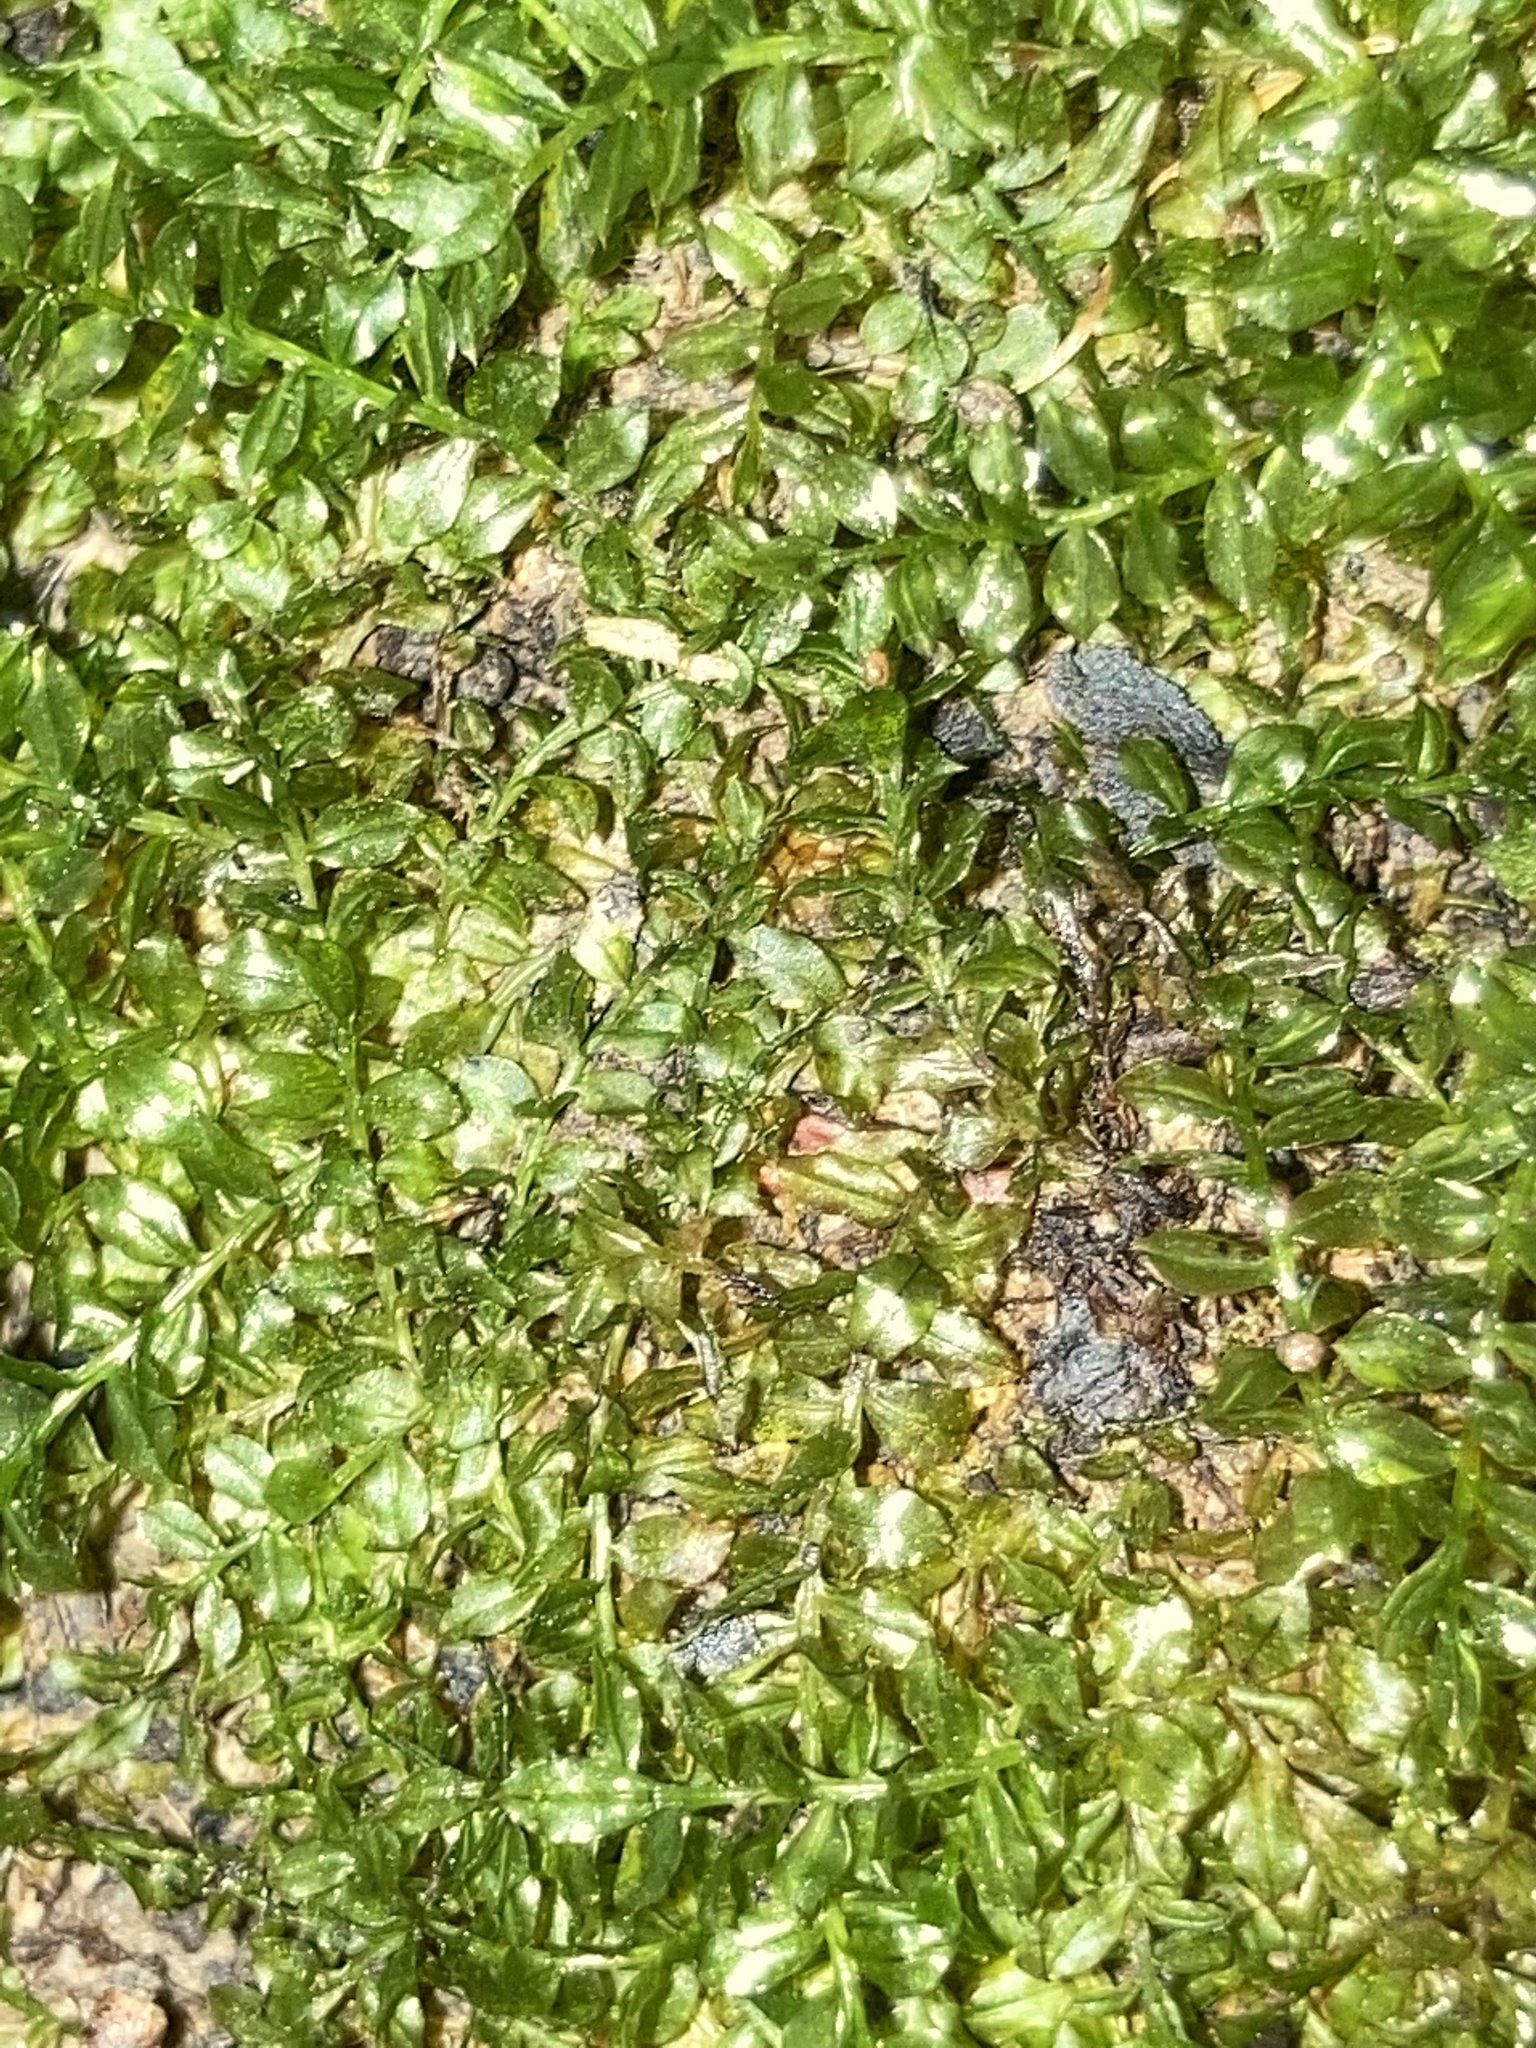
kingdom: Plantae
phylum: Bryophyta
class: Bryopsida
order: Bryales
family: Mniaceae
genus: Plagiomnium
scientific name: Plagiomnium ciliare
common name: Toothed leafy moss
